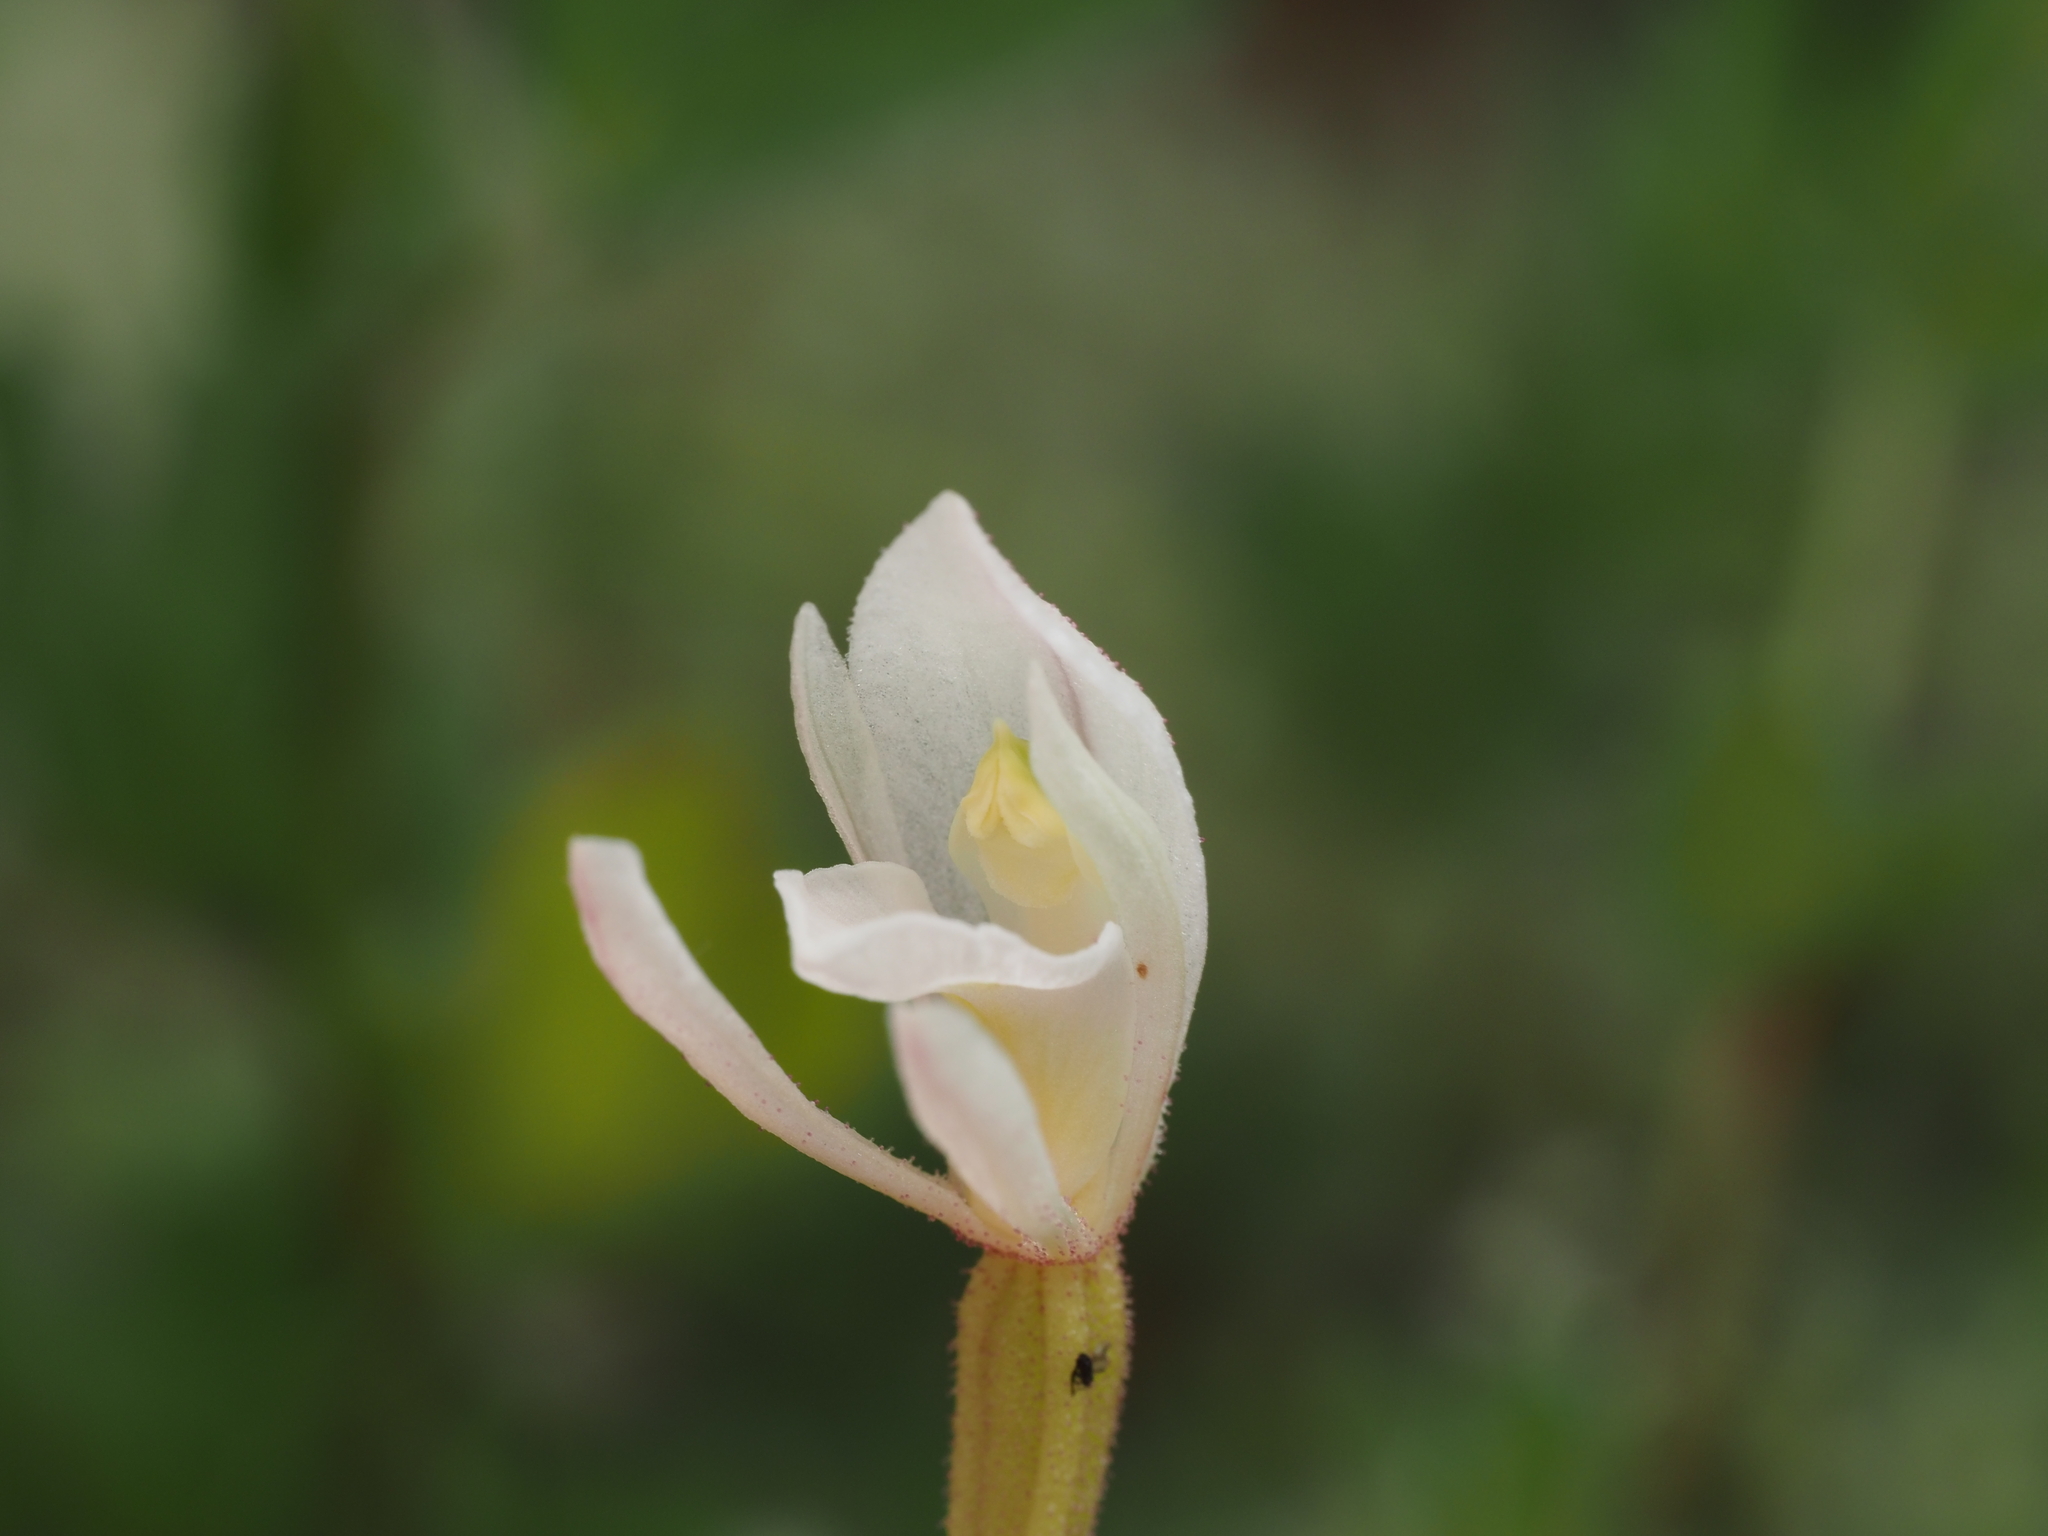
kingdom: Plantae
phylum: Tracheophyta
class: Liliopsida
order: Asparagales
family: Orchidaceae
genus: Aporostylis
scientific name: Aporostylis bifolia
